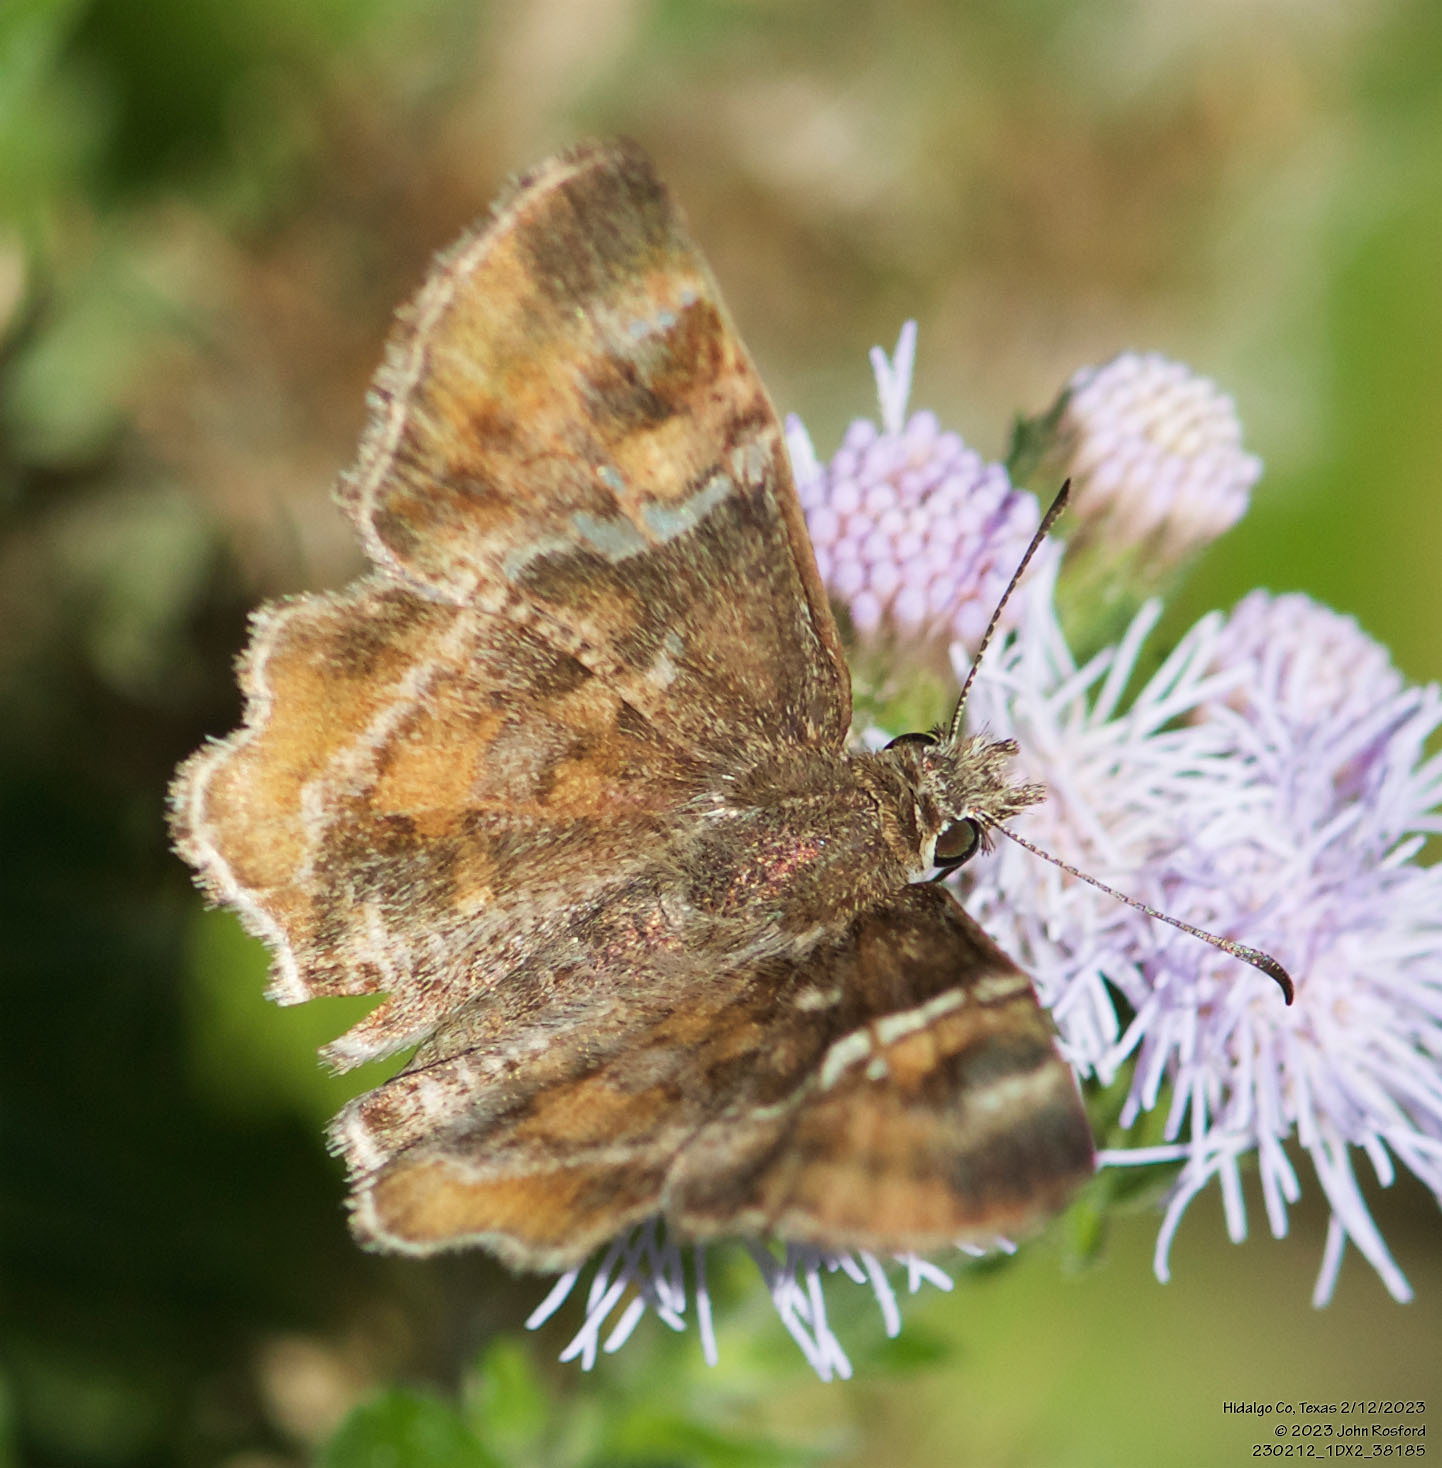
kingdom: Animalia
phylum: Arthropoda
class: Insecta
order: Lepidoptera
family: Hesperiidae
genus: Systasea
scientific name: Systasea pulverulenta
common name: Texas powdered skipper
